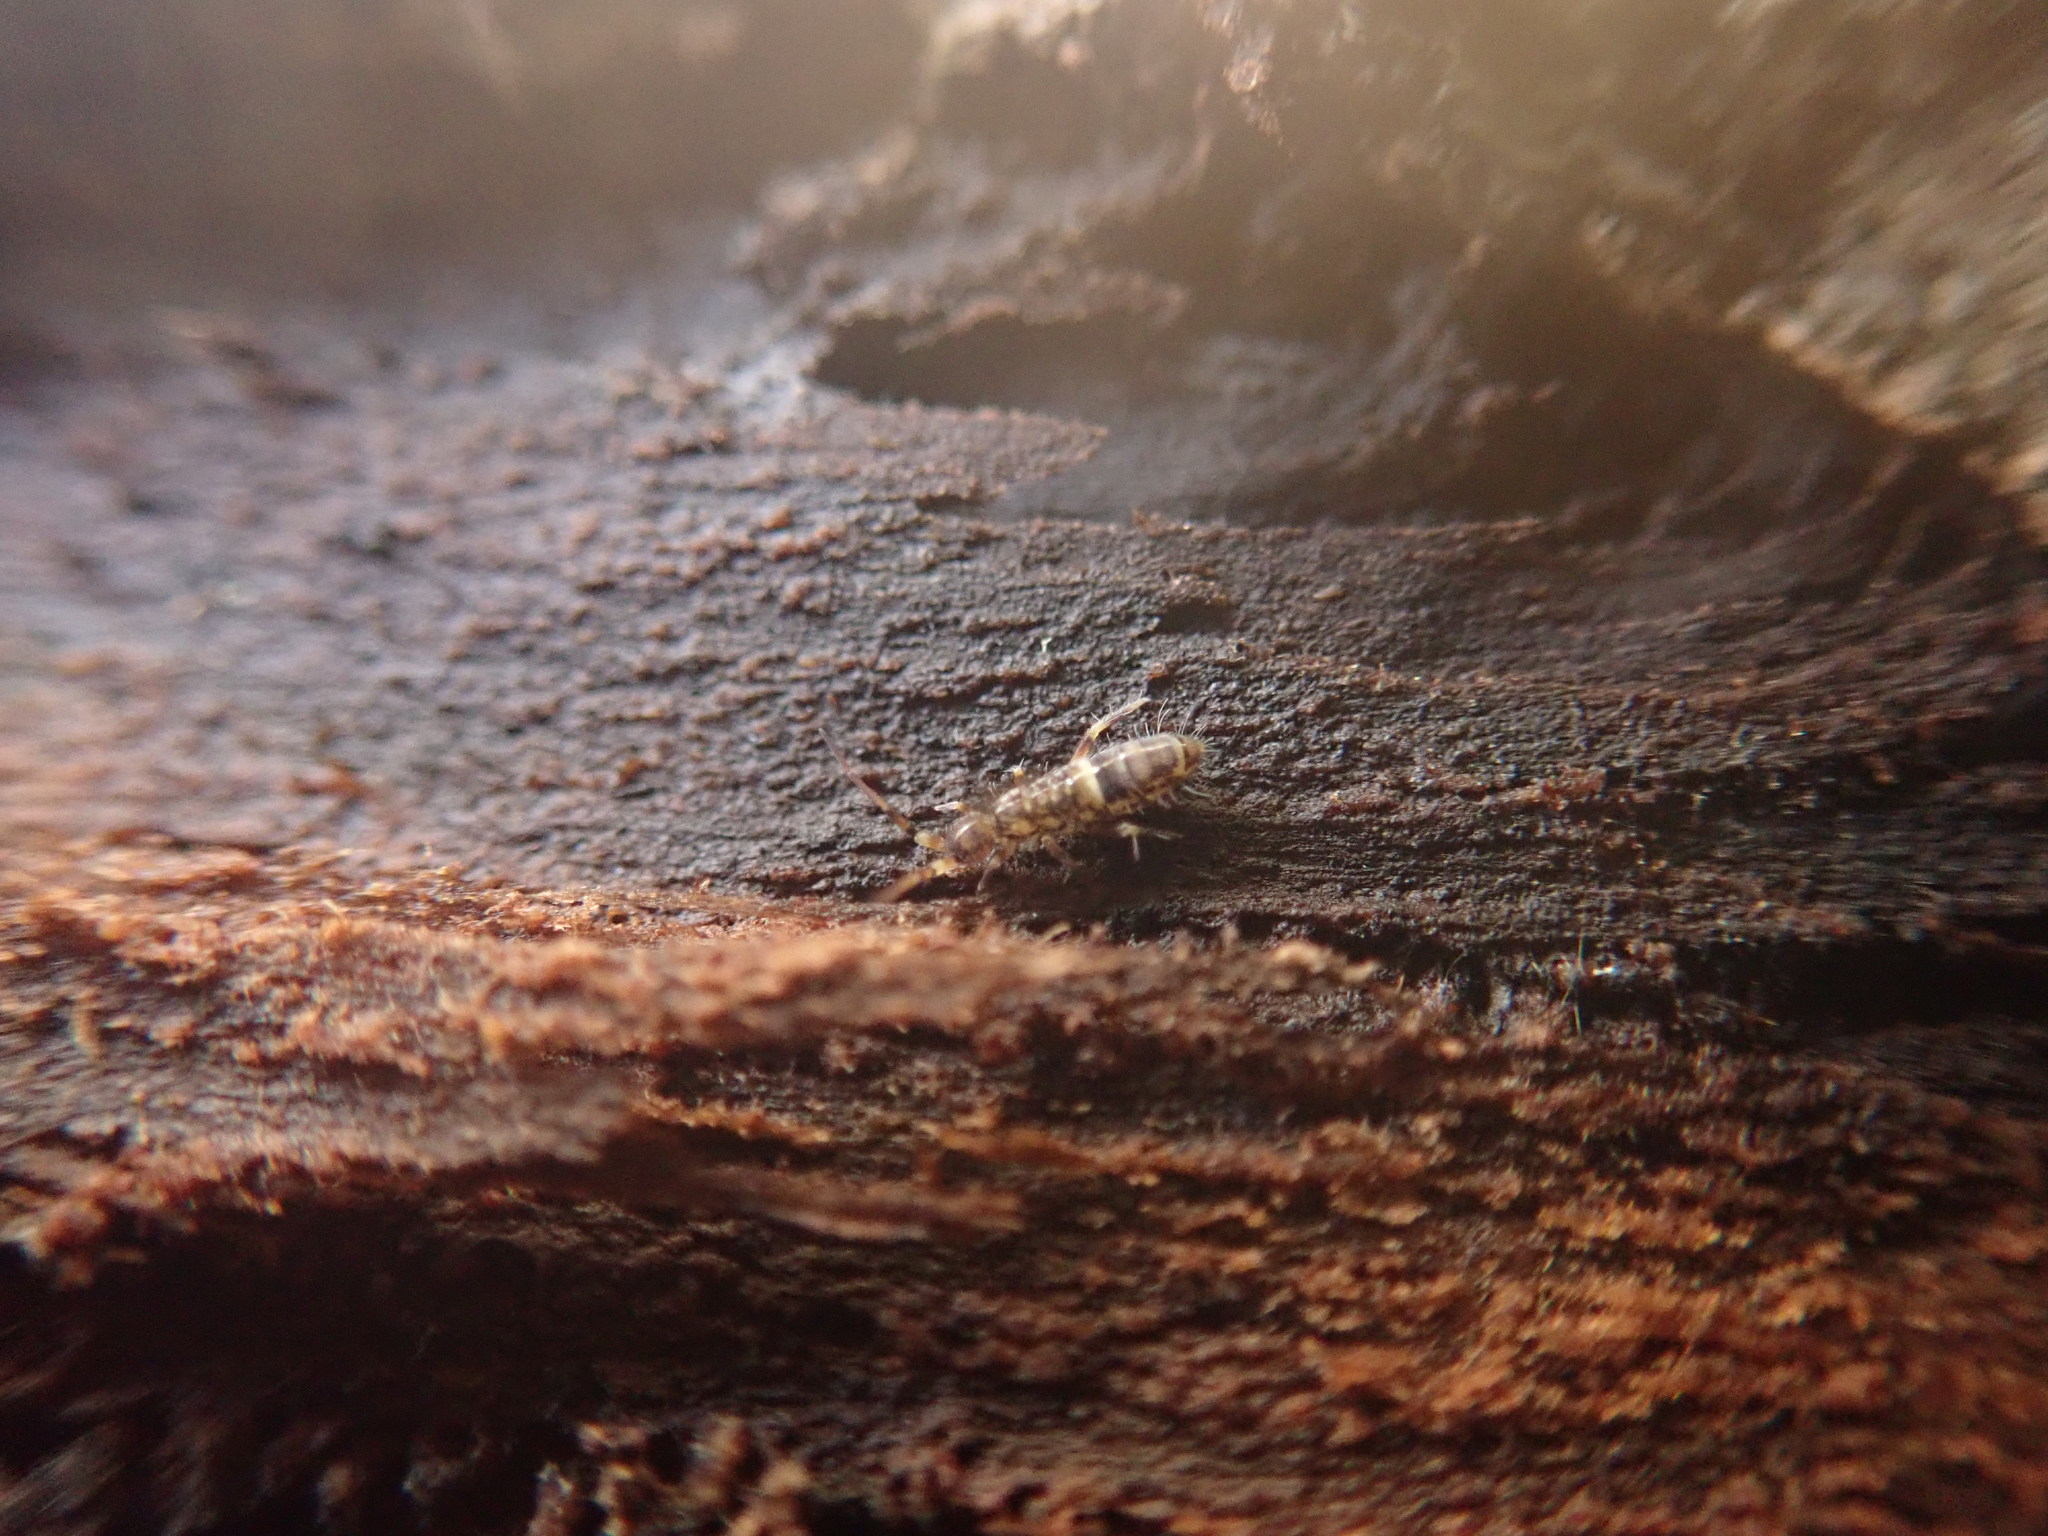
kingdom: Animalia
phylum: Arthropoda
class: Collembola
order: Entomobryomorpha
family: Orchesellidae
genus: Orchesella
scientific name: Orchesella cincta
